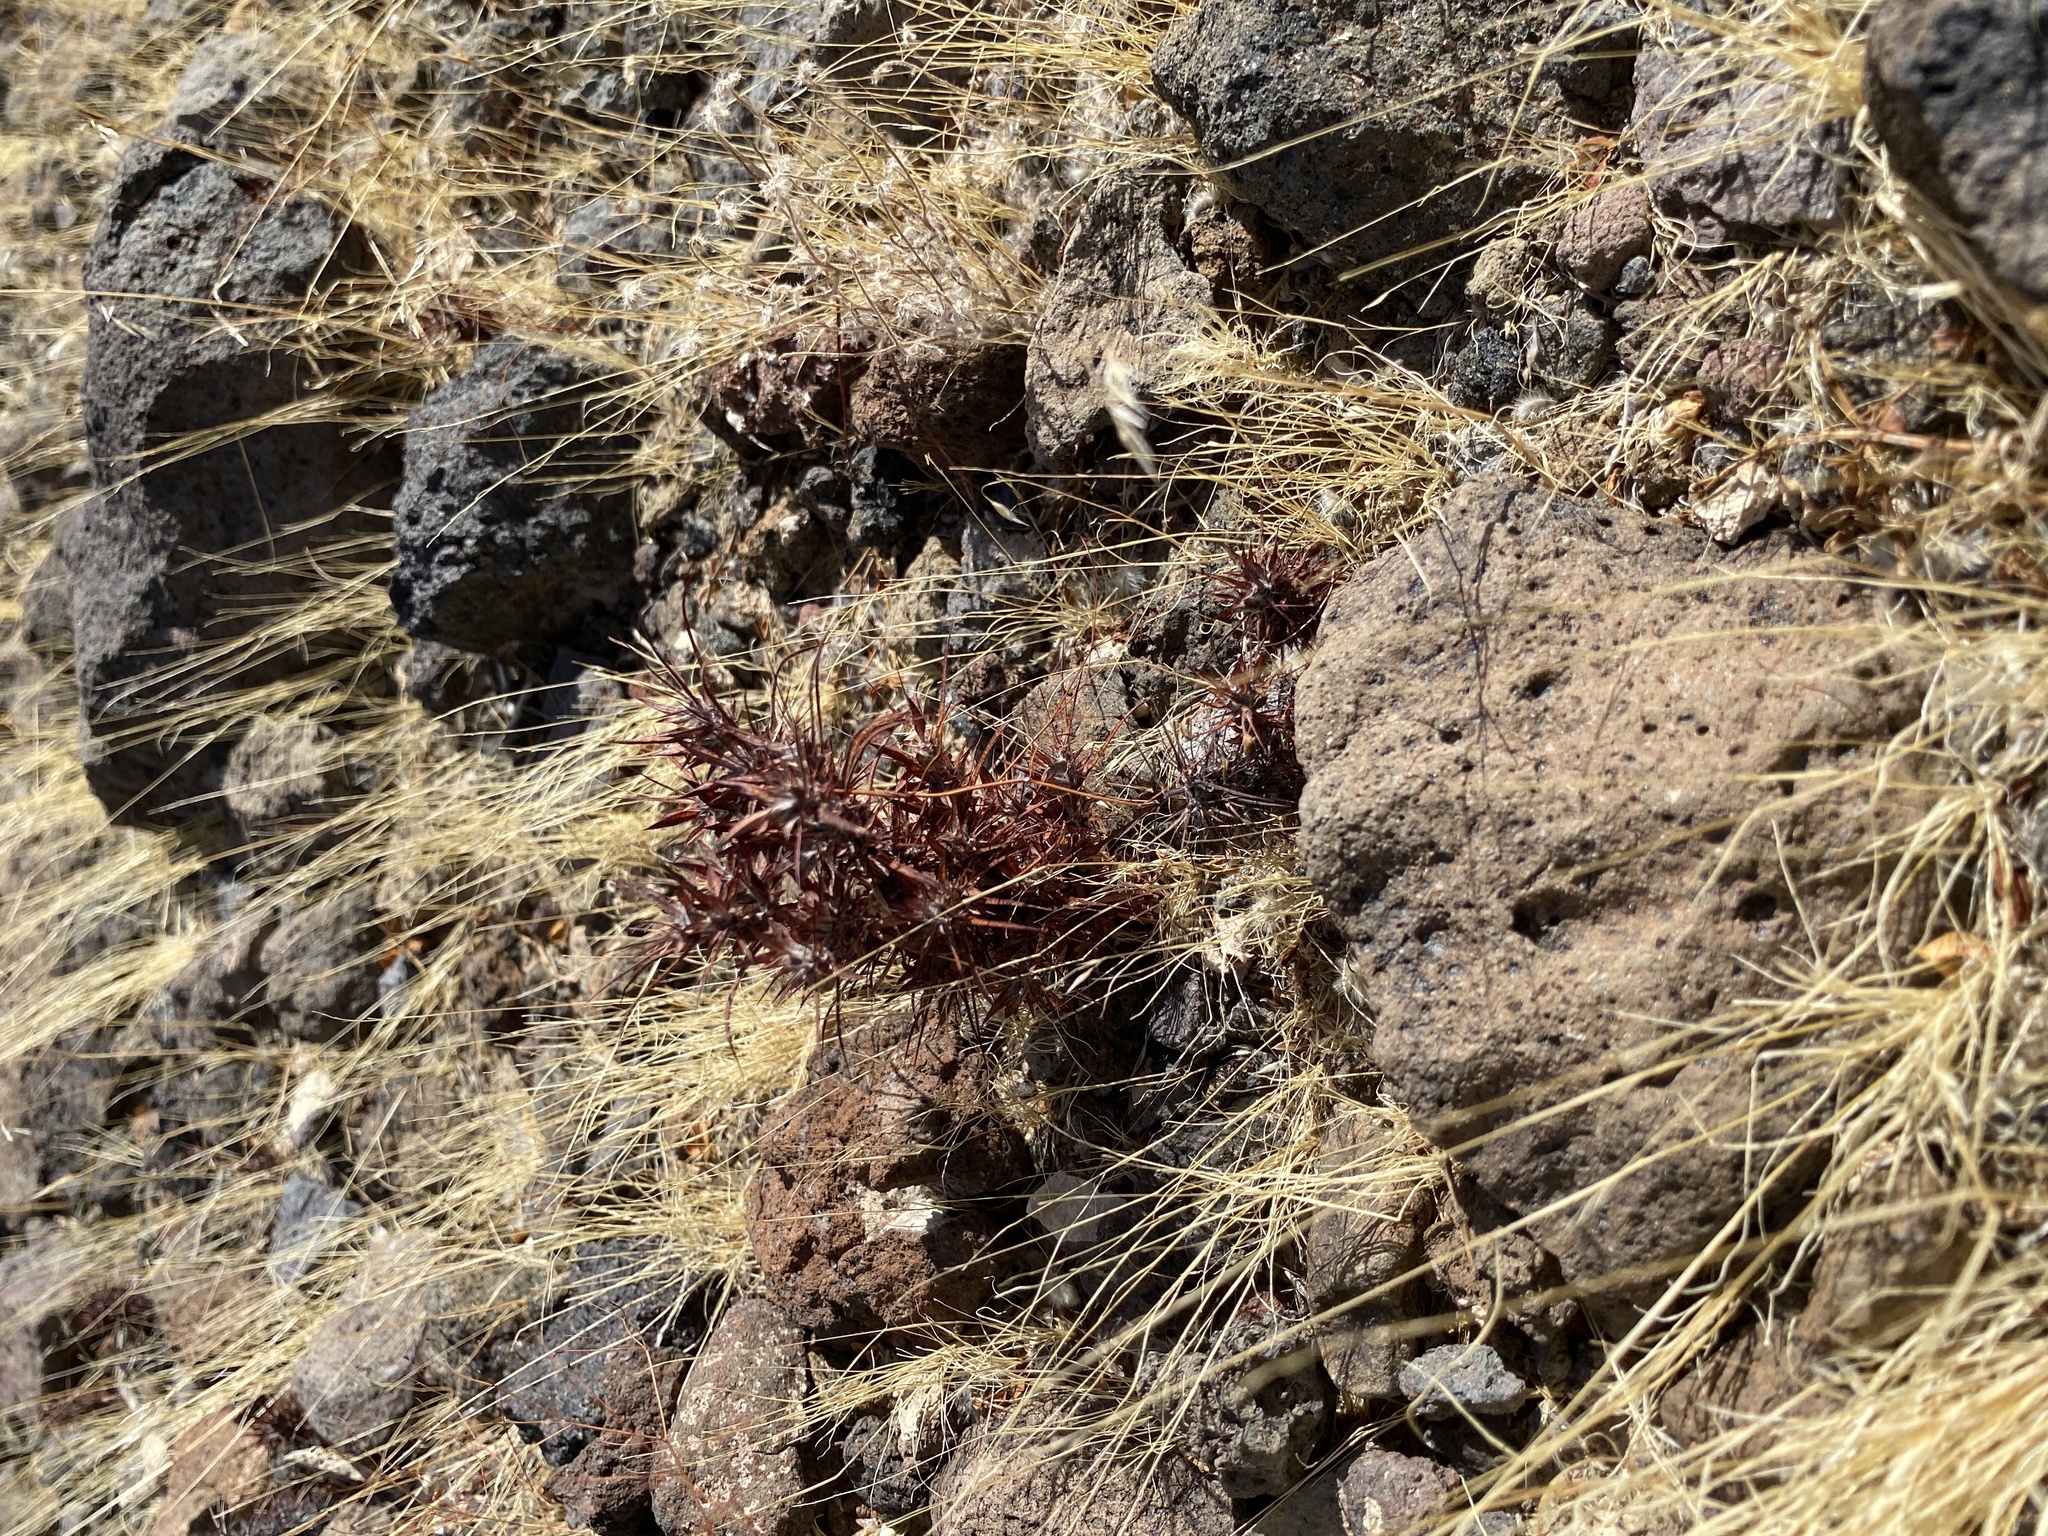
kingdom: Plantae
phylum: Tracheophyta
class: Magnoliopsida
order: Caryophyllales
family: Polygonaceae
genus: Chorizanthe
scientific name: Chorizanthe rigida
